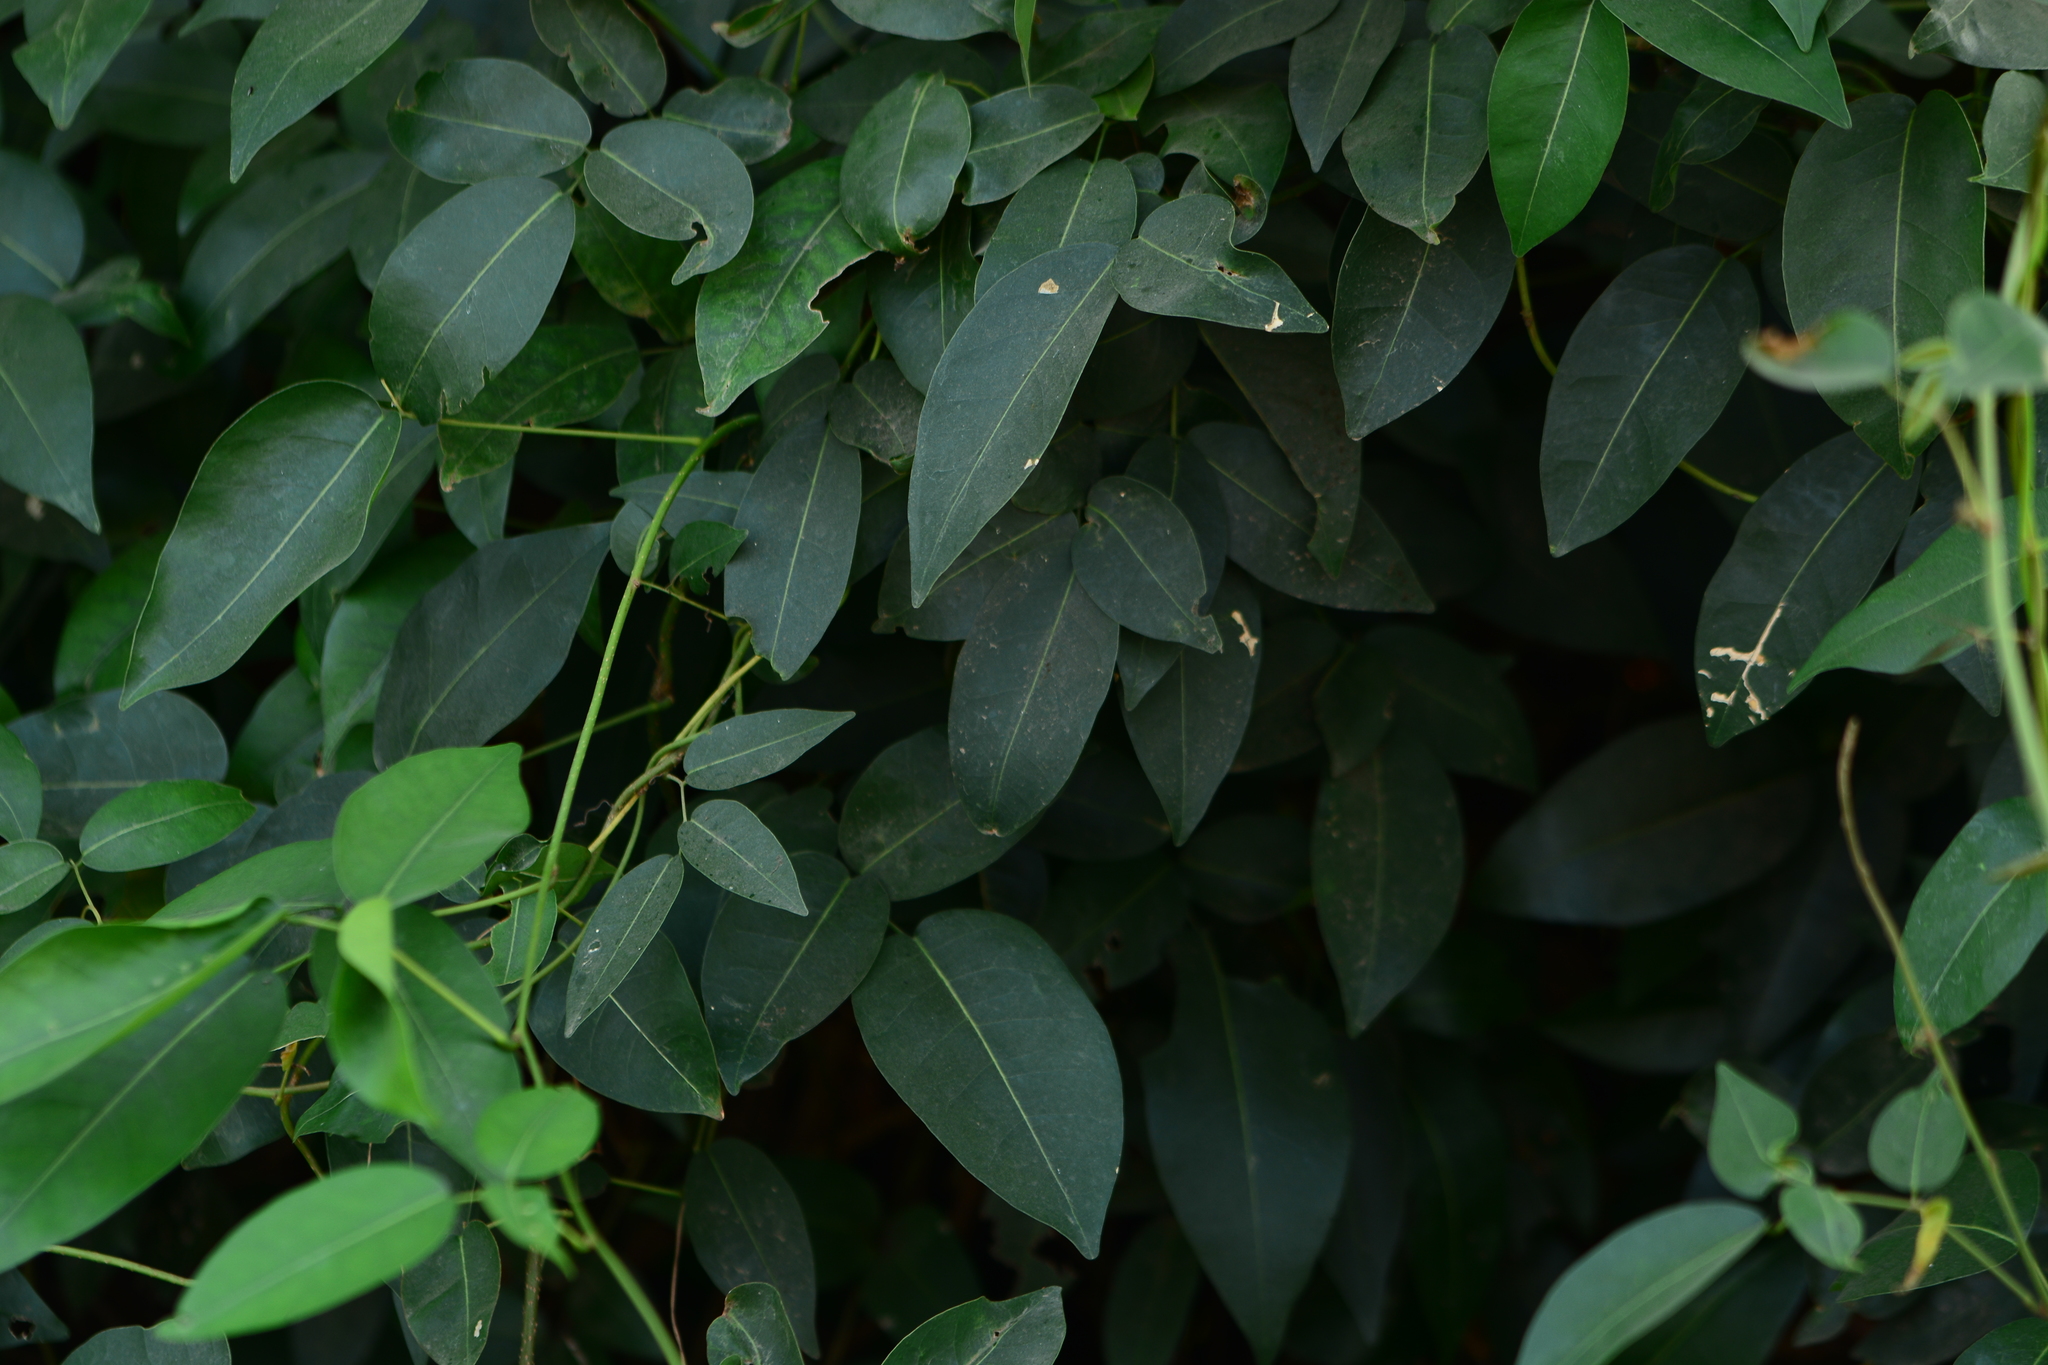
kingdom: Plantae
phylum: Tracheophyta
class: Magnoliopsida
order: Fabales
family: Fabaceae
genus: Derris
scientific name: Derris trifoliata
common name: Three-leaf derris
